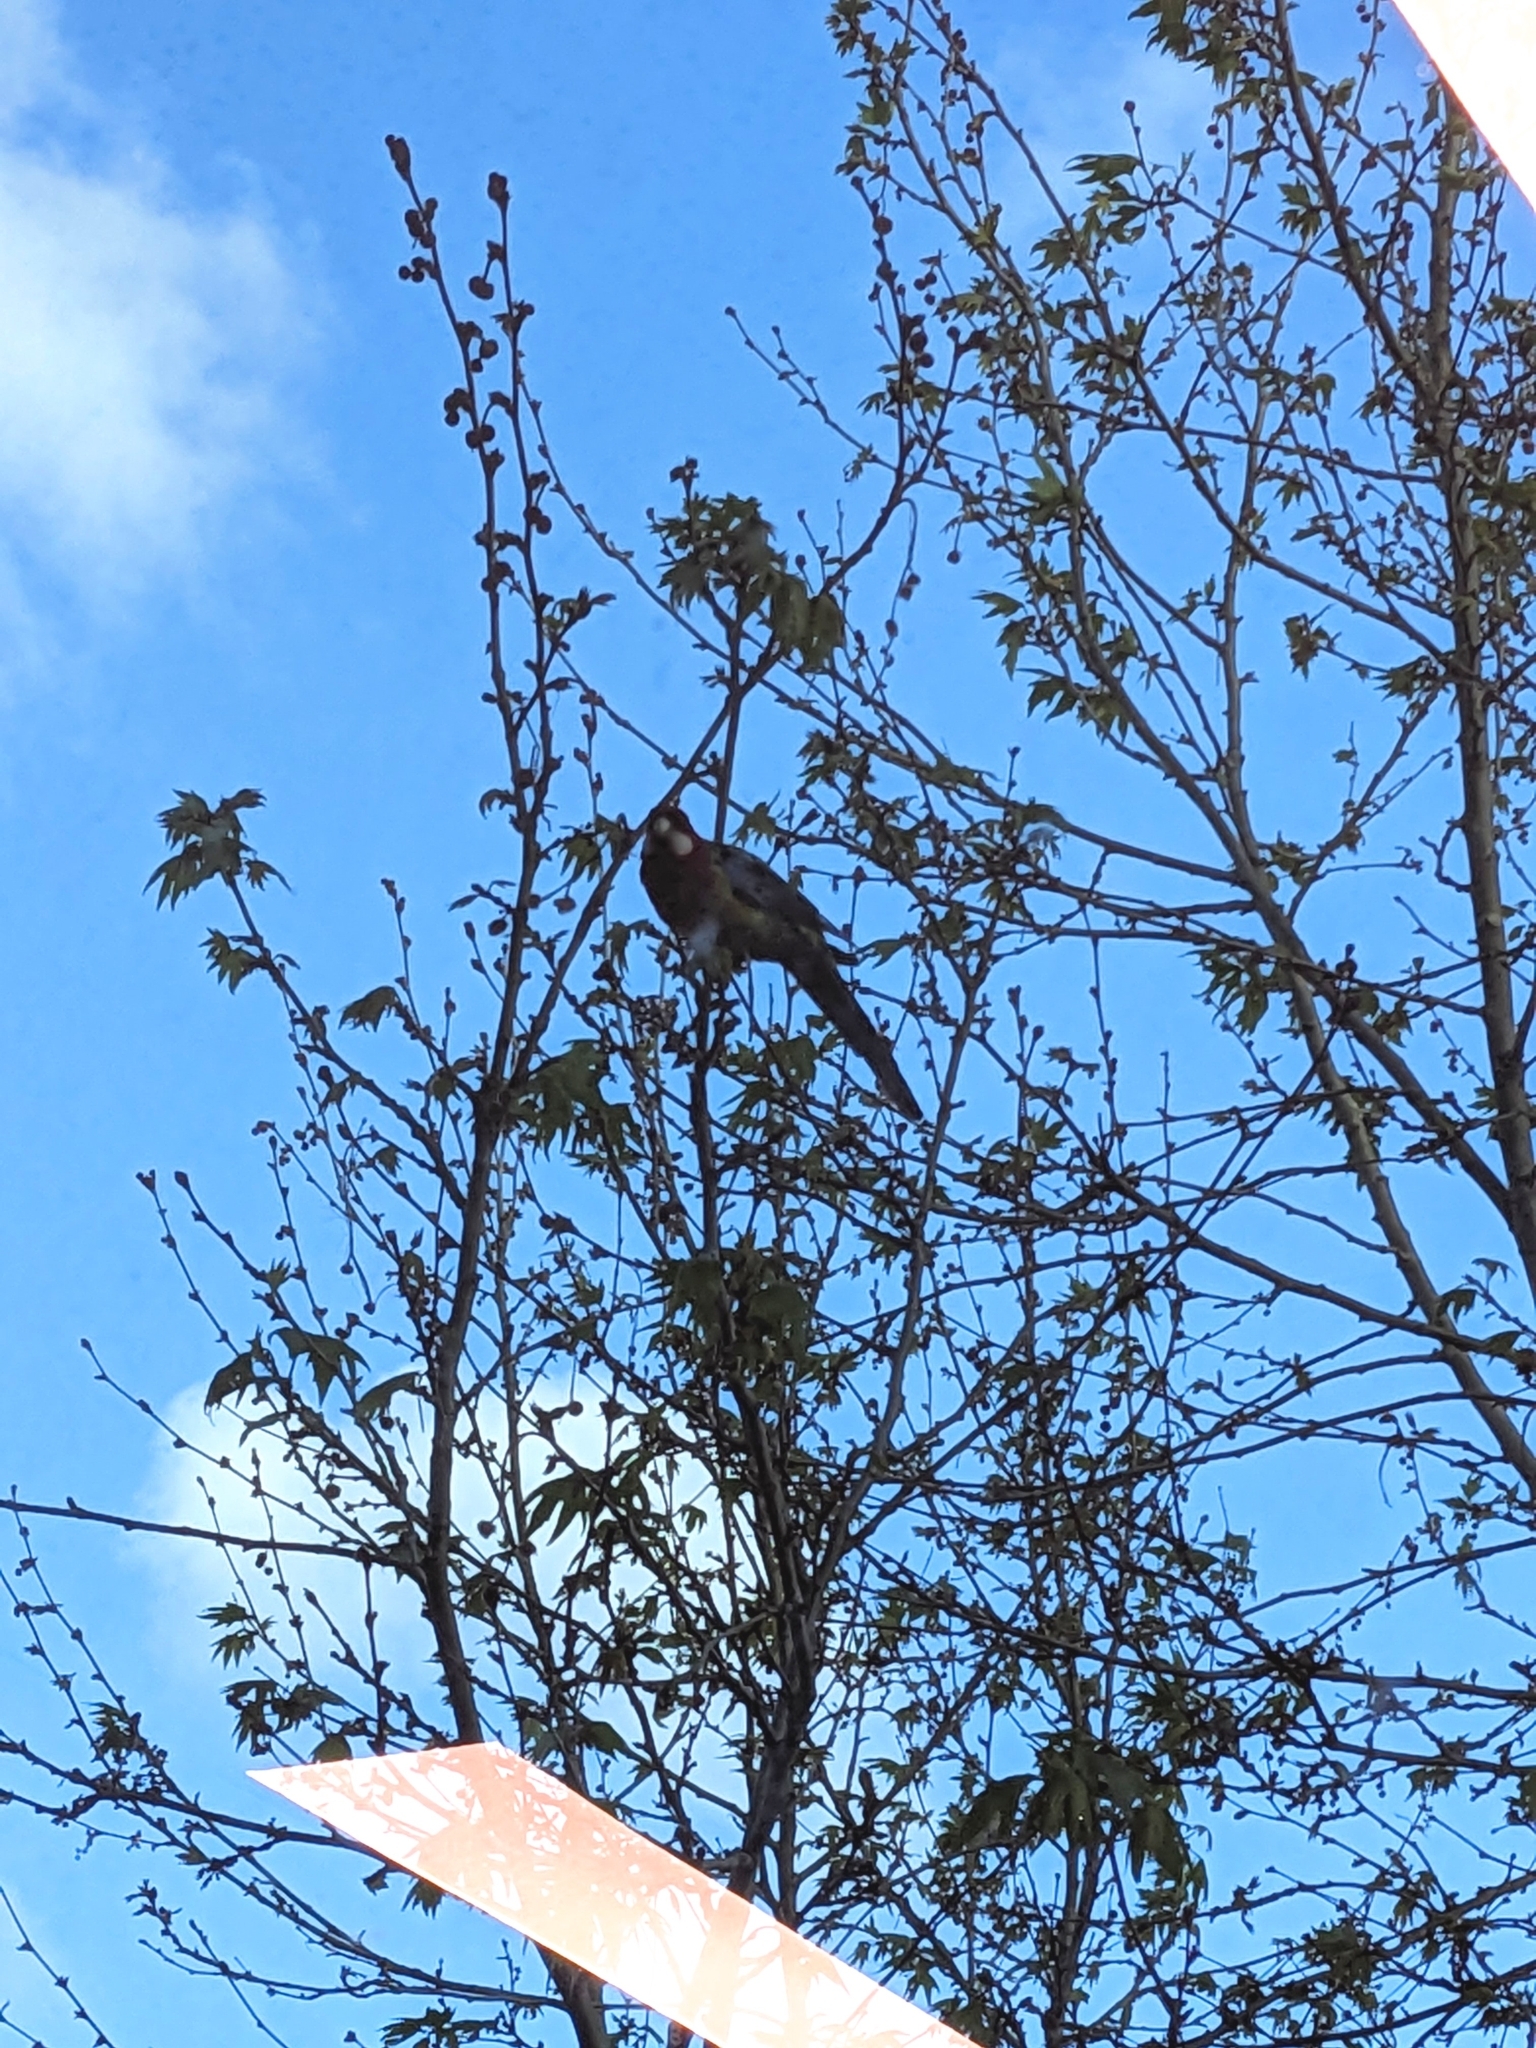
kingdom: Animalia
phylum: Chordata
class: Aves
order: Psittaciformes
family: Psittacidae
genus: Platycercus
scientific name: Platycercus eximius
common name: Eastern rosella
